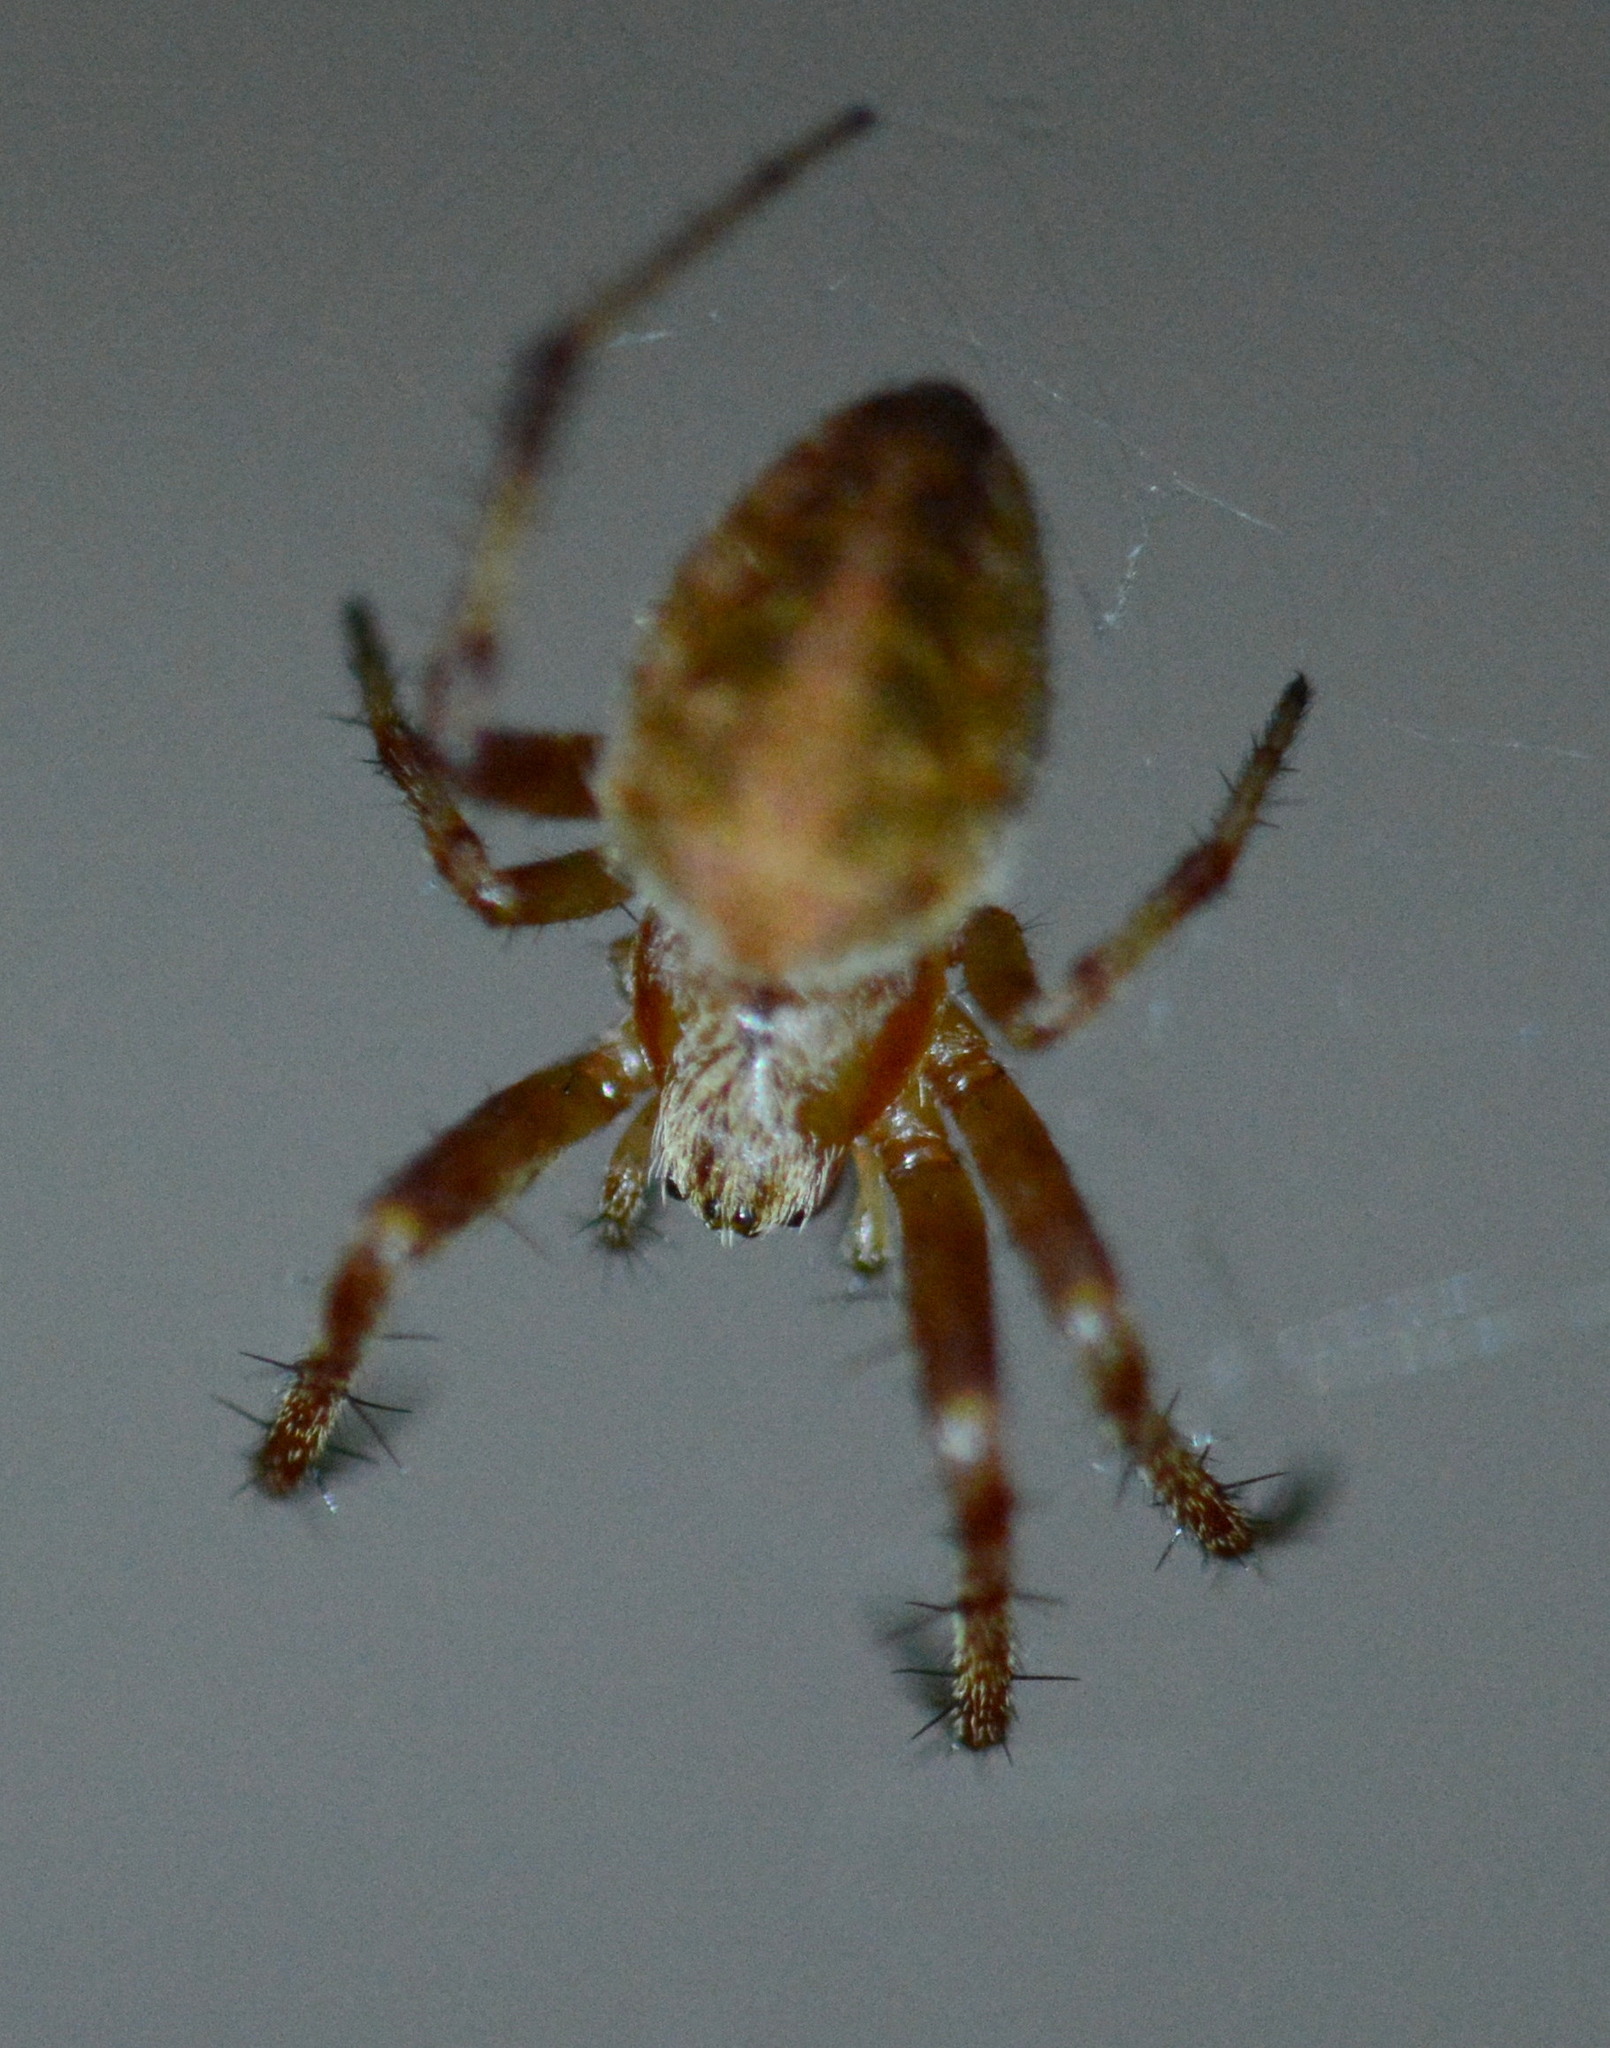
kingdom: Animalia
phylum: Arthropoda
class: Arachnida
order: Araneae
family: Araneidae
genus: Neoscona
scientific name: Neoscona arabesca
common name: Orb weavers
